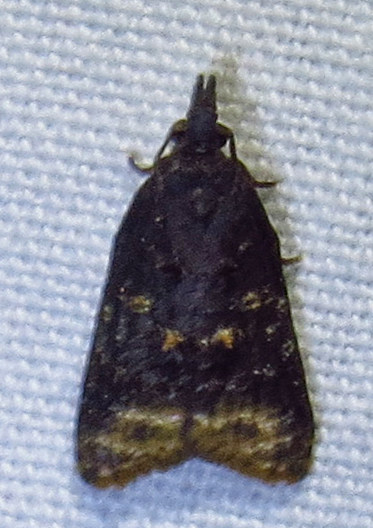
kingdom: Animalia
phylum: Arthropoda
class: Insecta
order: Lepidoptera
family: Tortricidae
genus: Platynota
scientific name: Platynota idaeusalis
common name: Tufted apple bud moth
